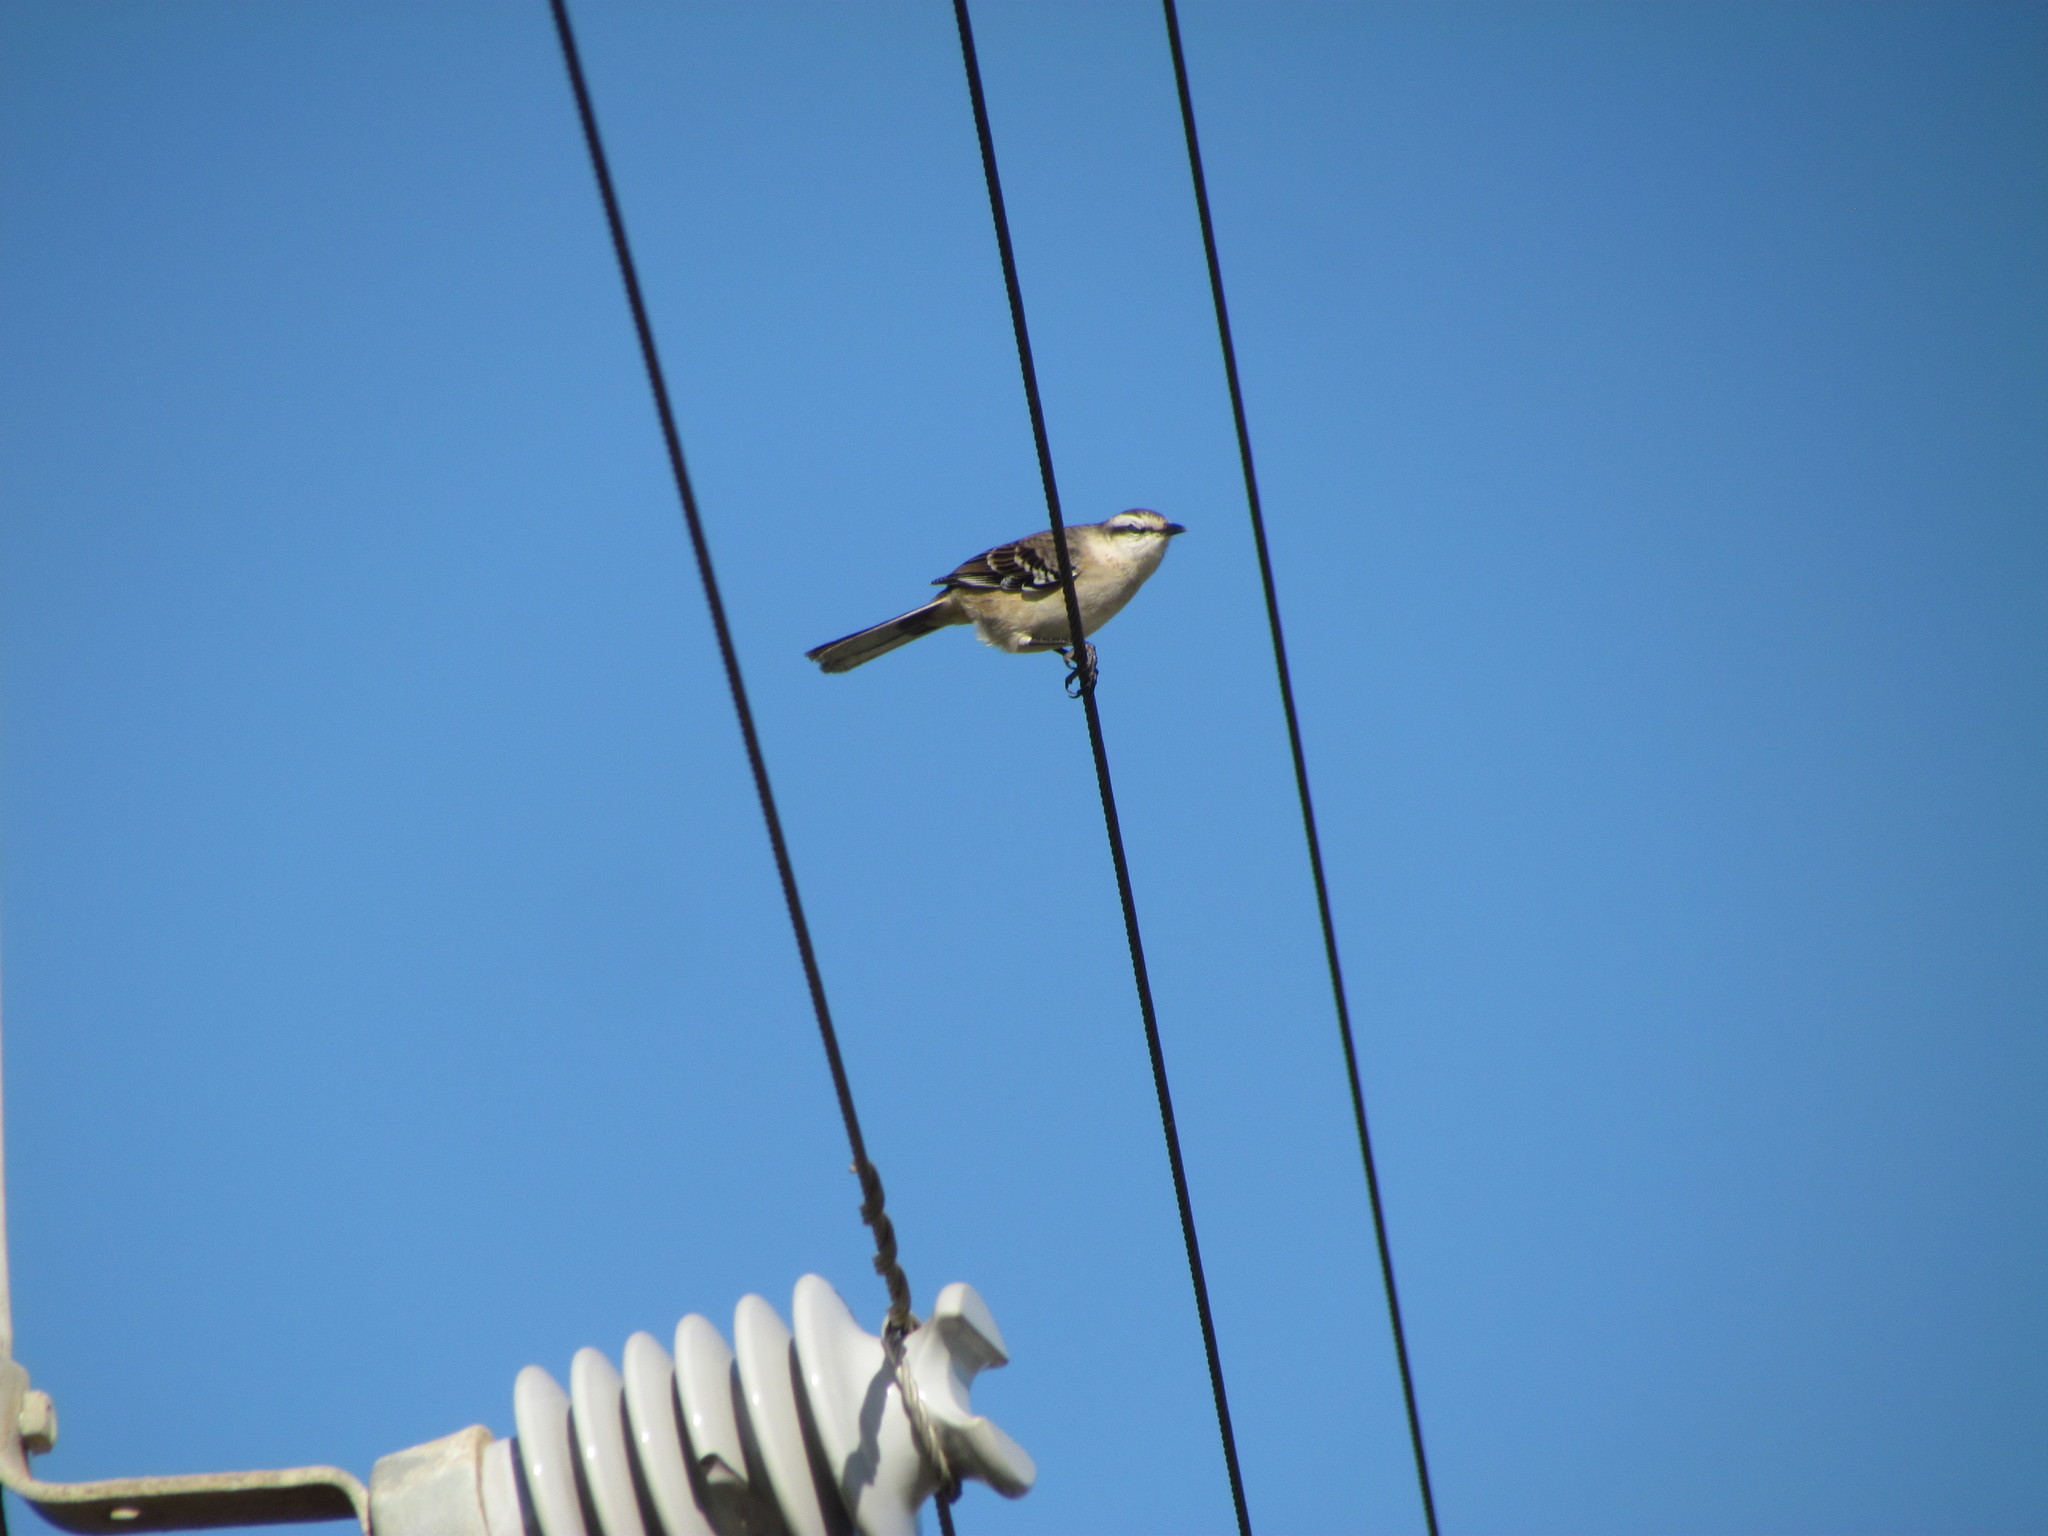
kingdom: Animalia
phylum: Chordata
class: Aves
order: Passeriformes
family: Mimidae
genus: Mimus
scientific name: Mimus saturninus
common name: Chalk-browed mockingbird
